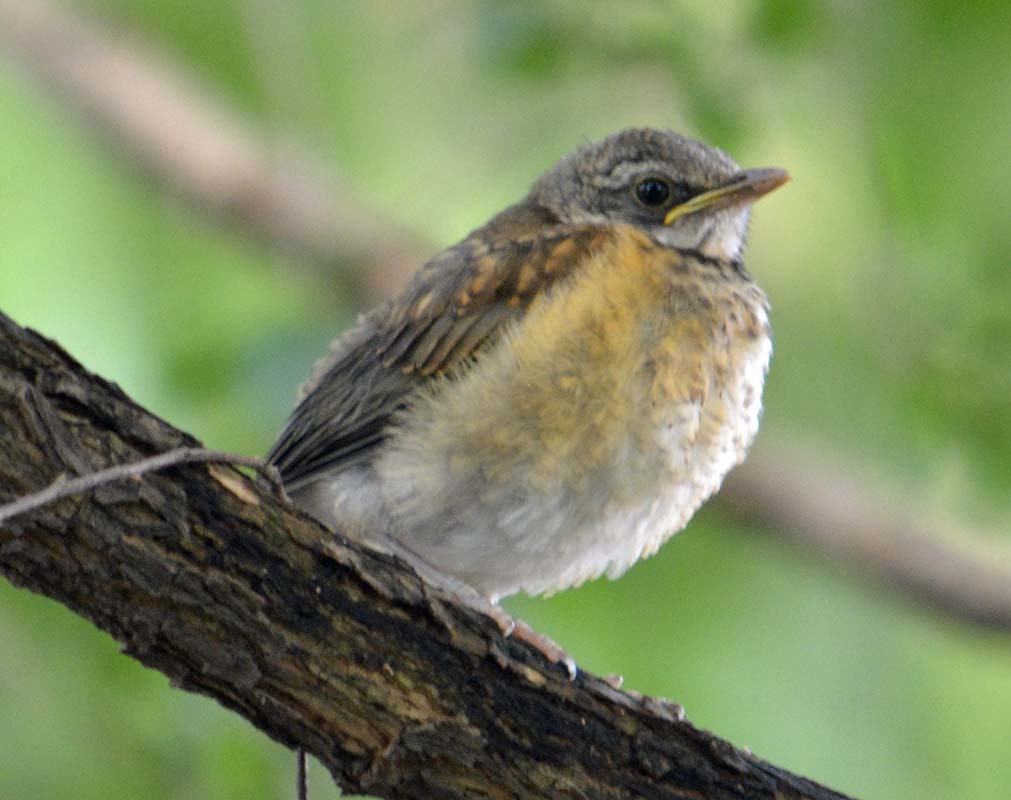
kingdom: Animalia
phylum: Chordata
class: Aves
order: Passeriformes
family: Turdidae
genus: Turdus
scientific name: Turdus rufopalliatus
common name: Rufous-backed robin
